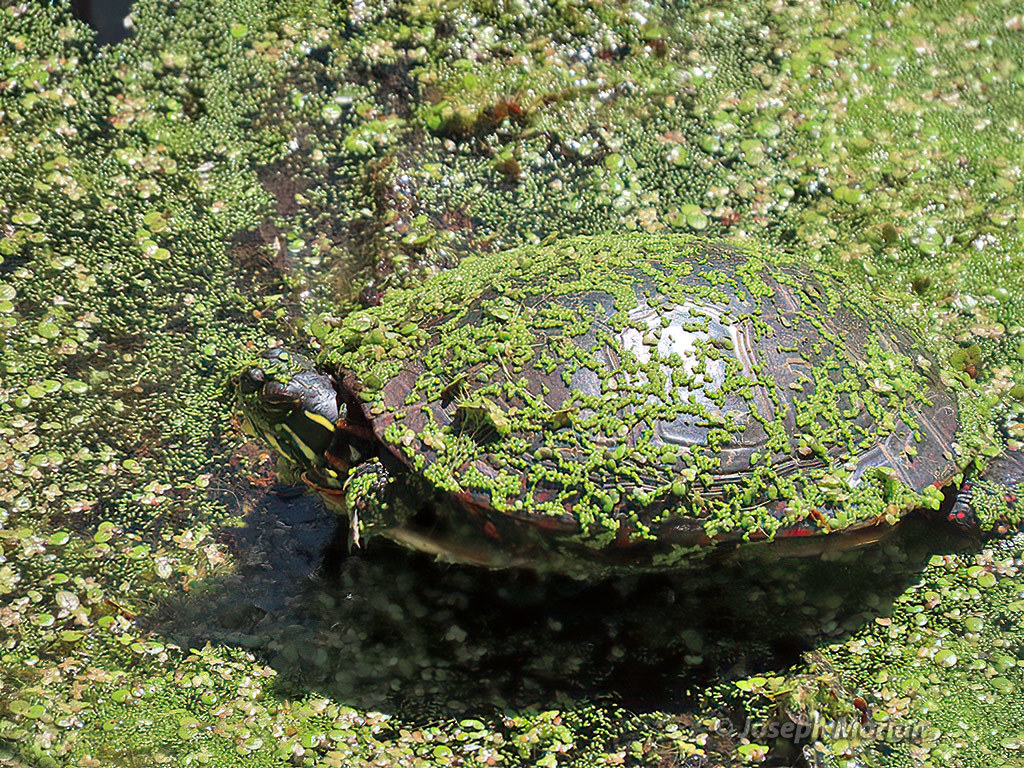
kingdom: Animalia
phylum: Chordata
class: Testudines
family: Emydidae
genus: Chrysemys
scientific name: Chrysemys picta
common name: Painted turtle
